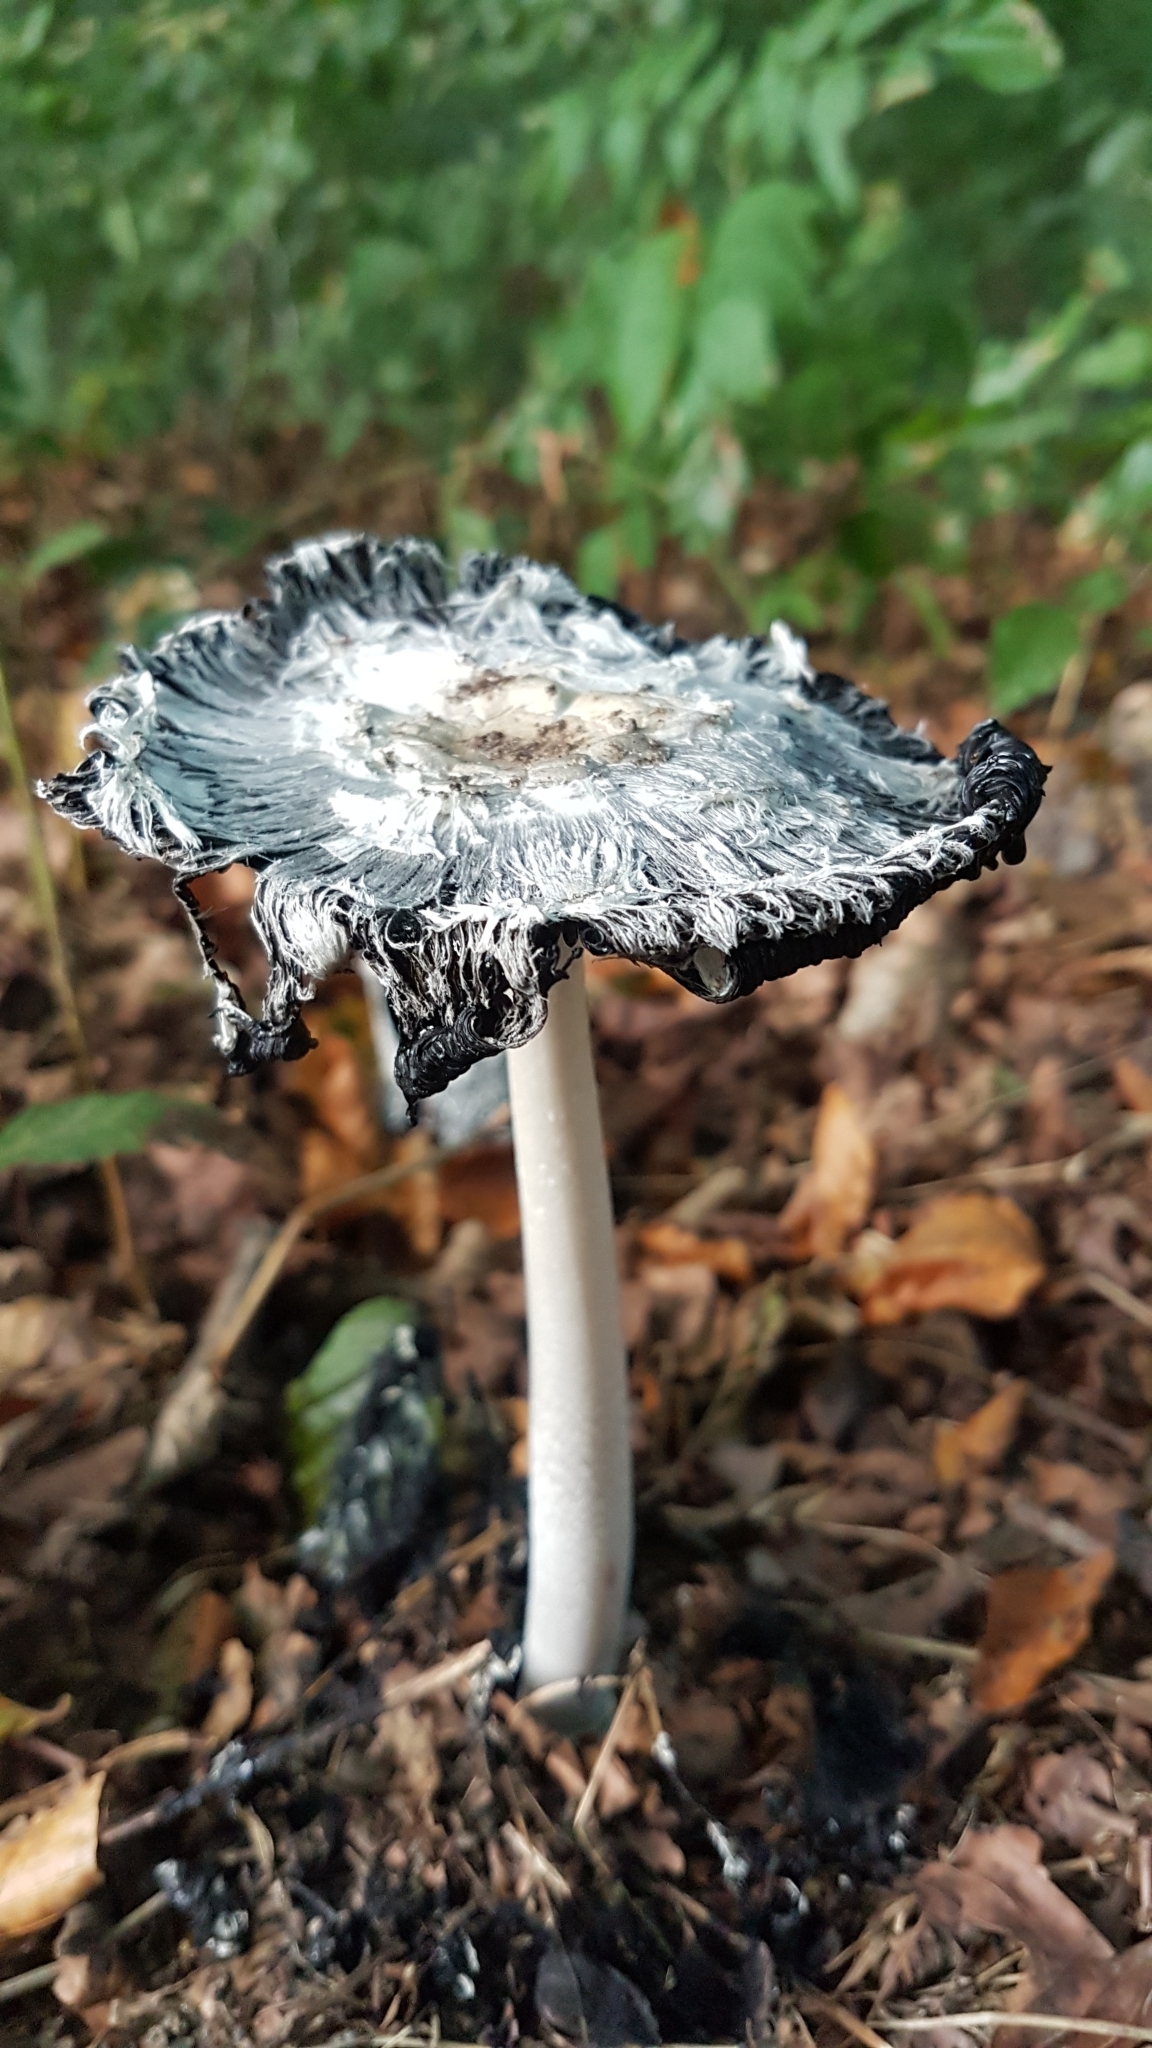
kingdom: Fungi
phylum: Basidiomycota
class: Agaricomycetes
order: Agaricales
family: Agaricaceae
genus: Coprinus
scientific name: Coprinus comatus
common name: Lawyer's wig
